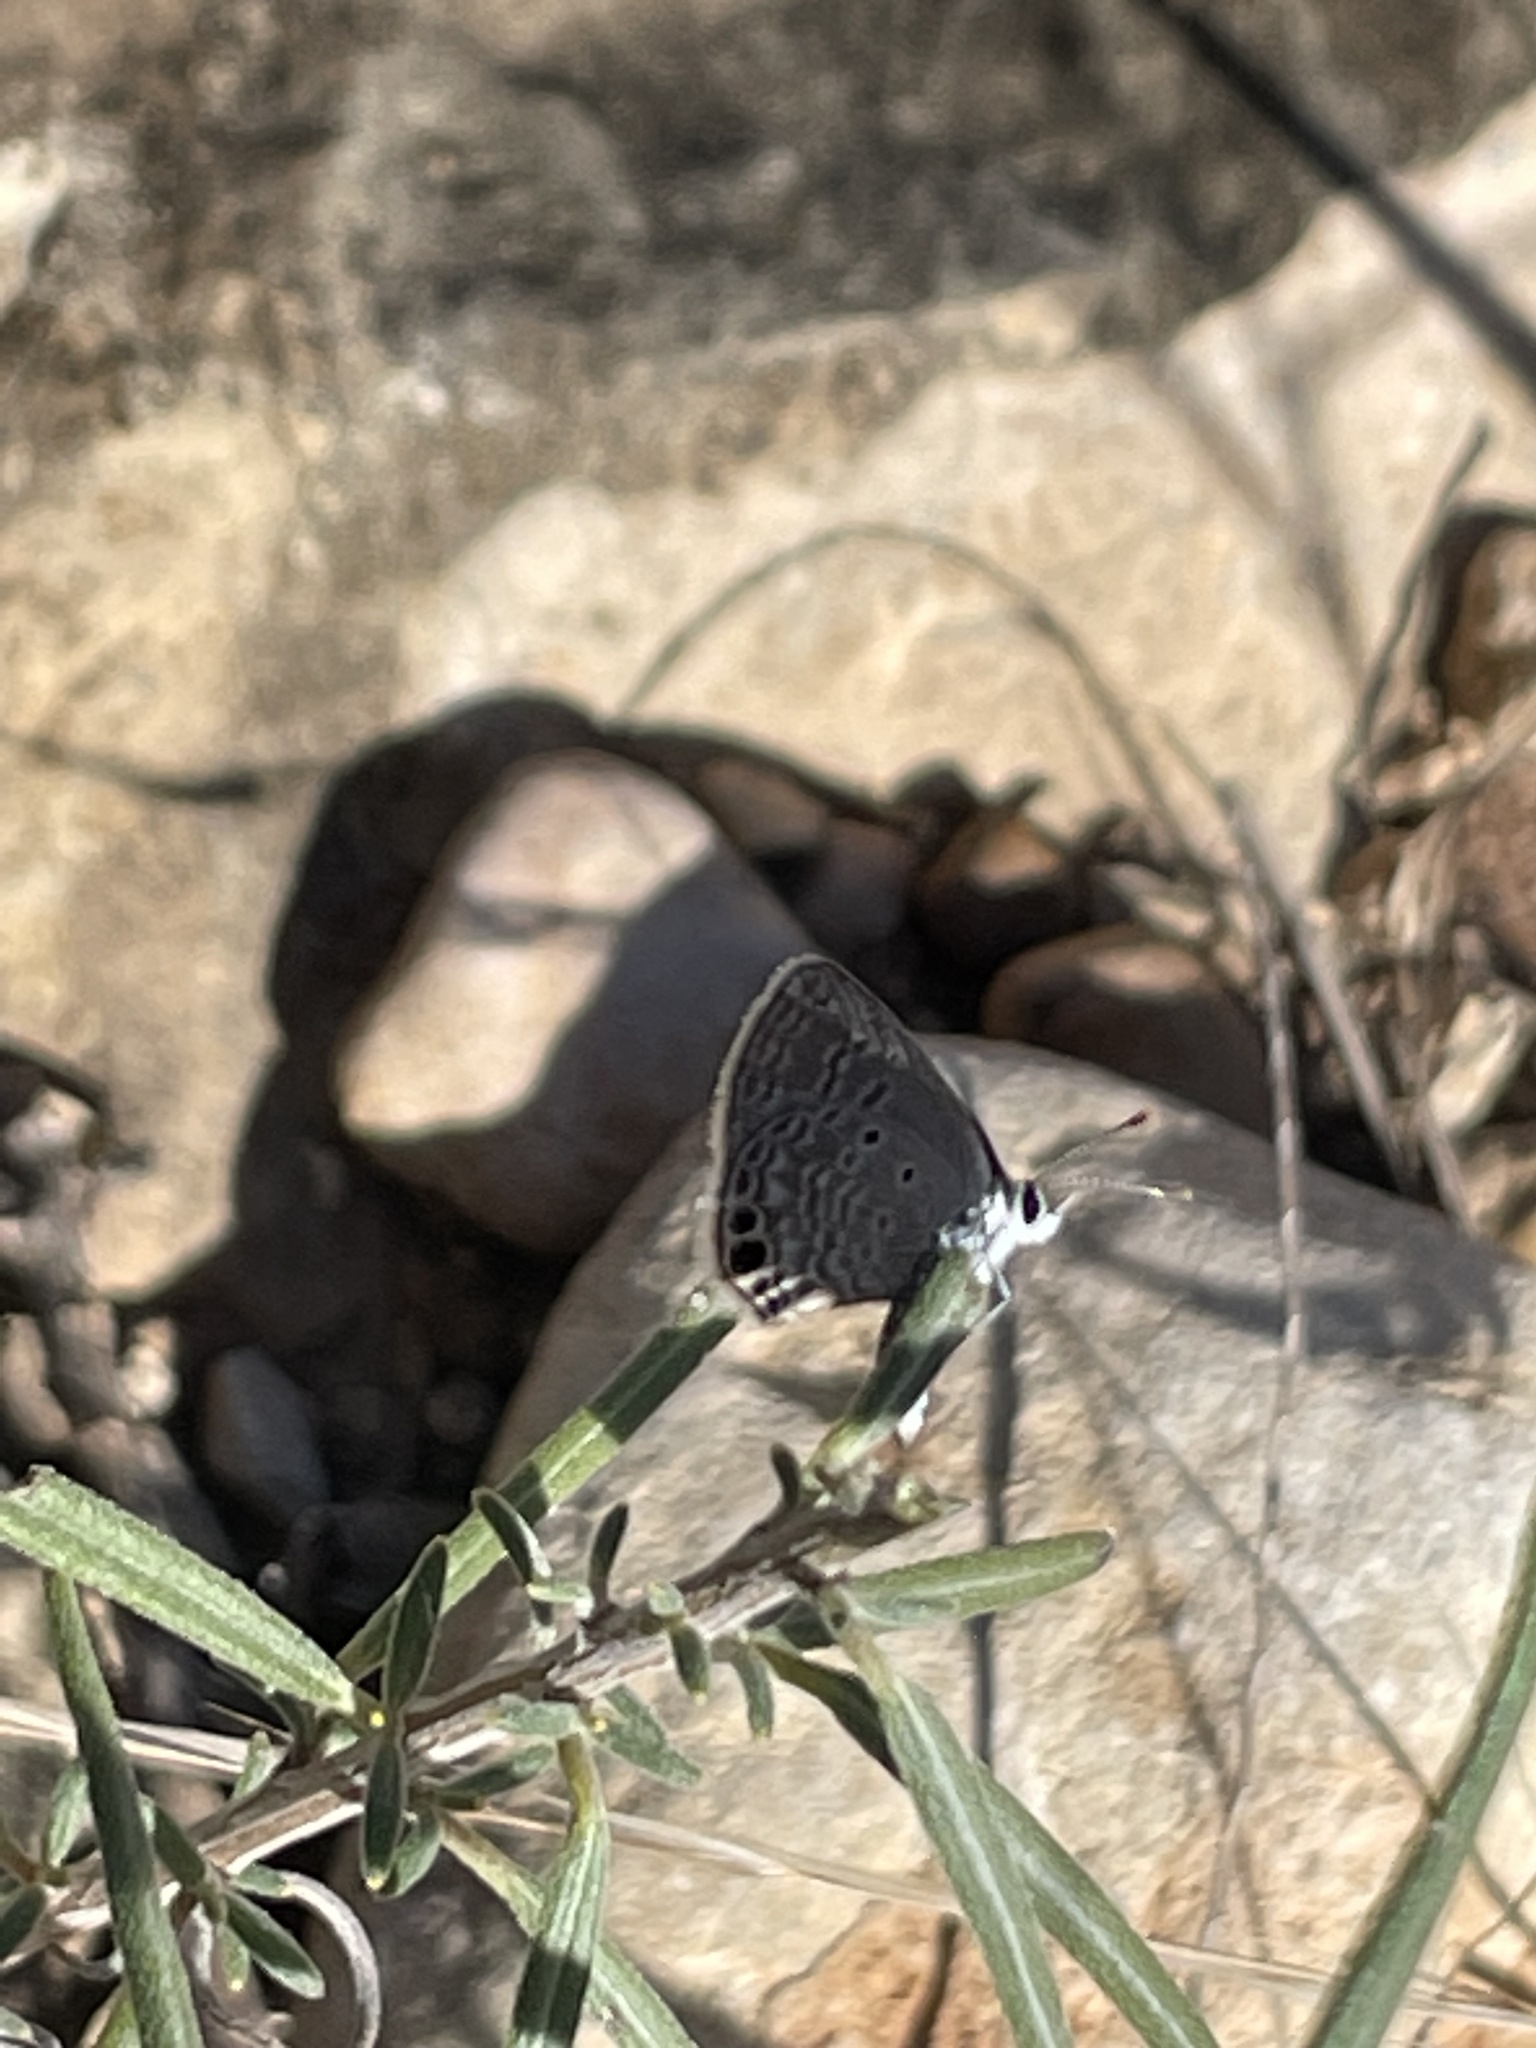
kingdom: Animalia
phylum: Arthropoda
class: Insecta
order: Lepidoptera
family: Lycaenidae
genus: Hemiargus
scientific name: Hemiargus ceraunus
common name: Ceraunus blue
